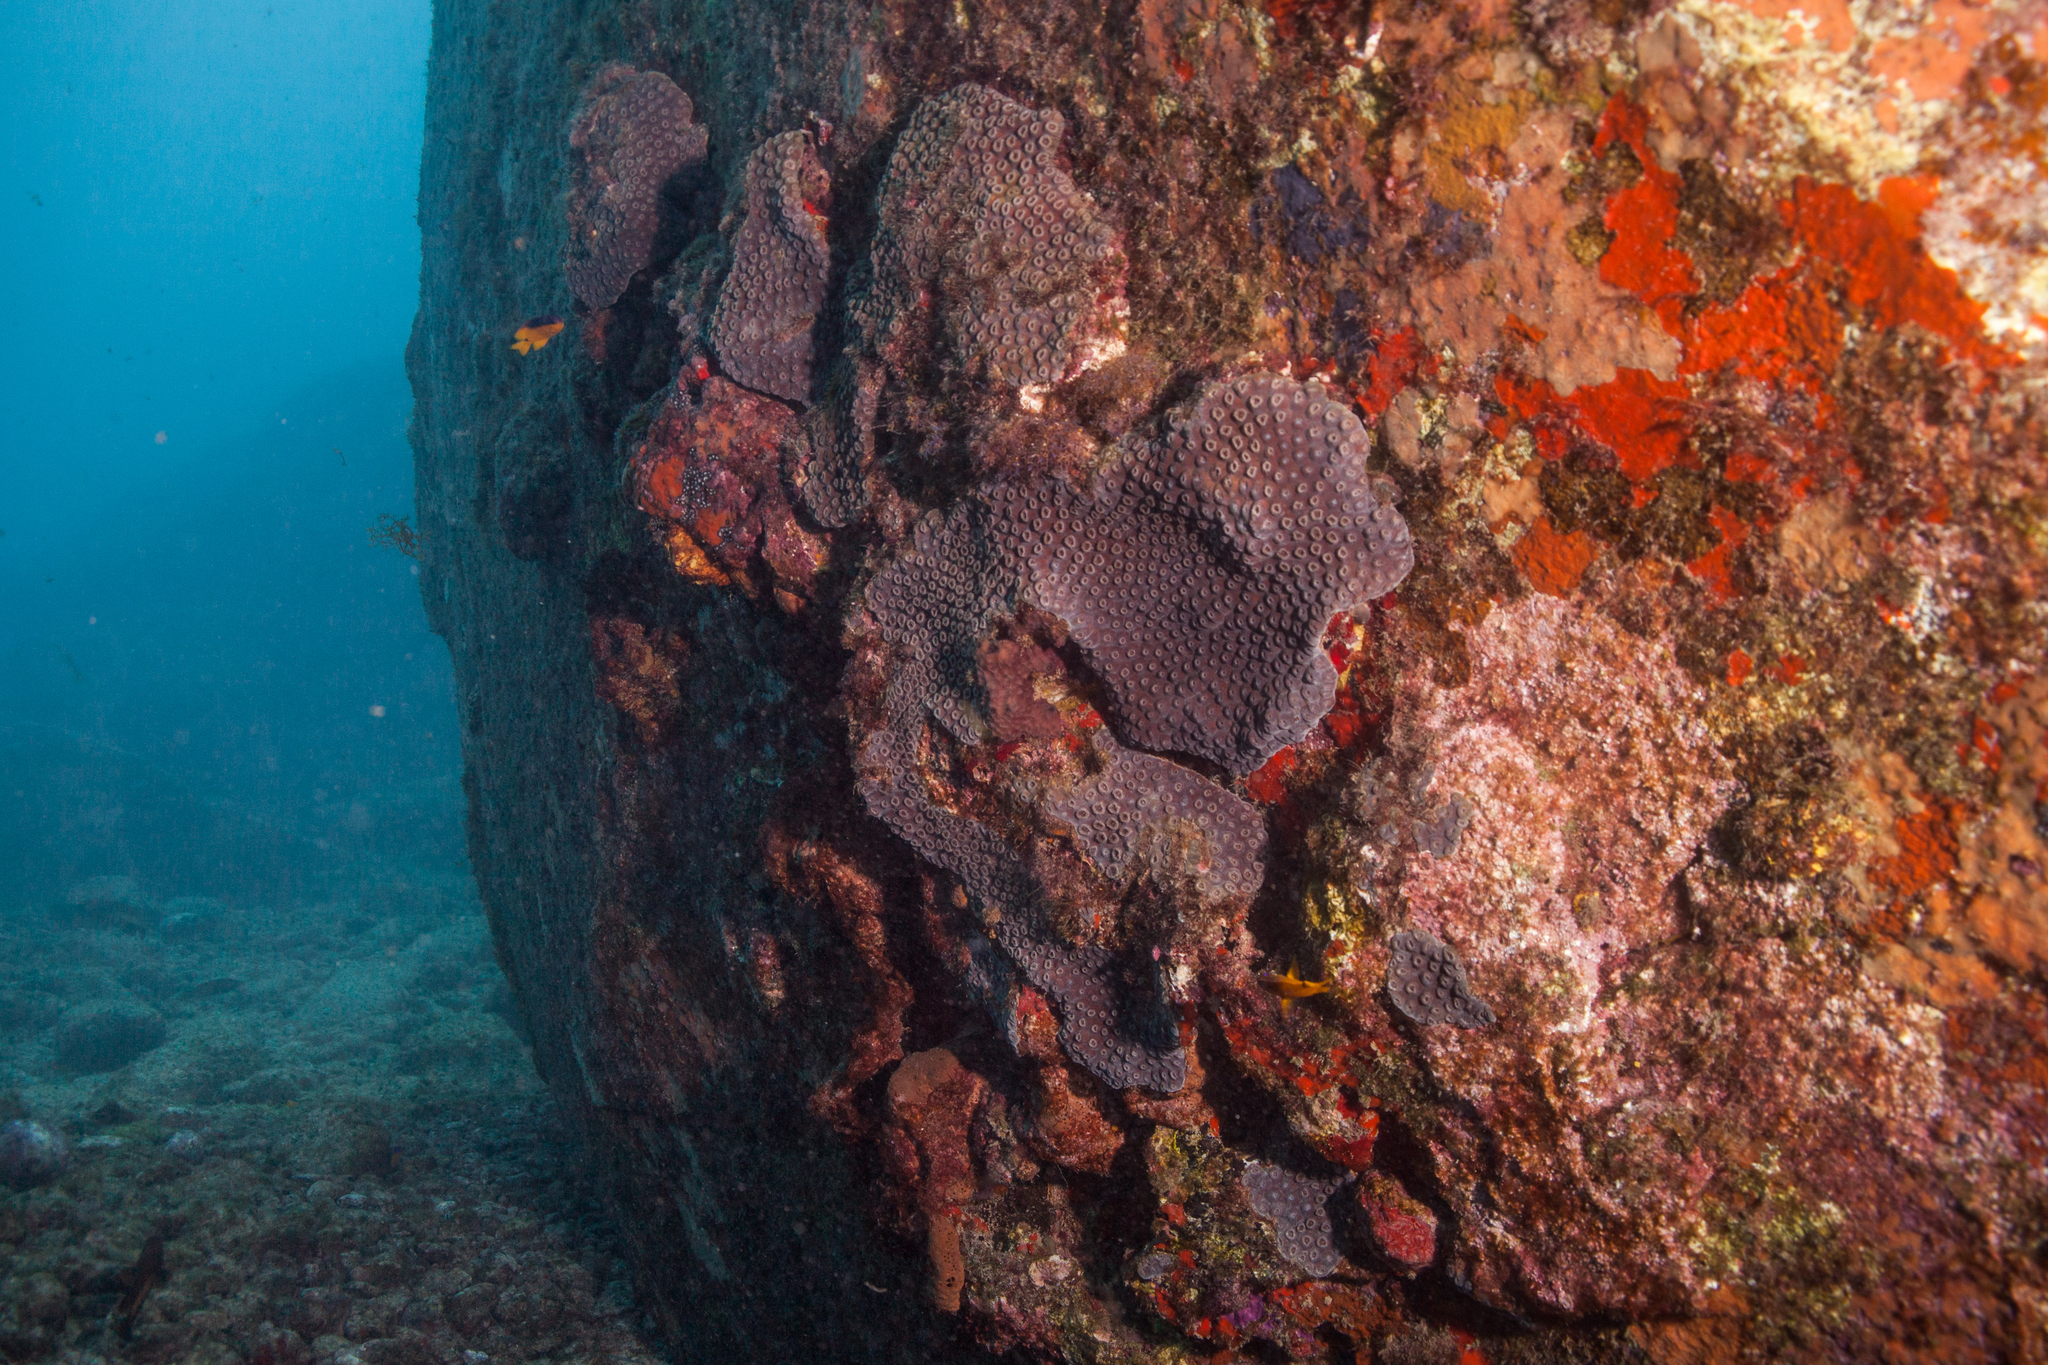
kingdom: Animalia
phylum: Cnidaria
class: Anthozoa
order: Scleractinia
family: Montastraeidae
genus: Montastraea
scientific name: Montastraea cavernosa
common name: Great star coral
